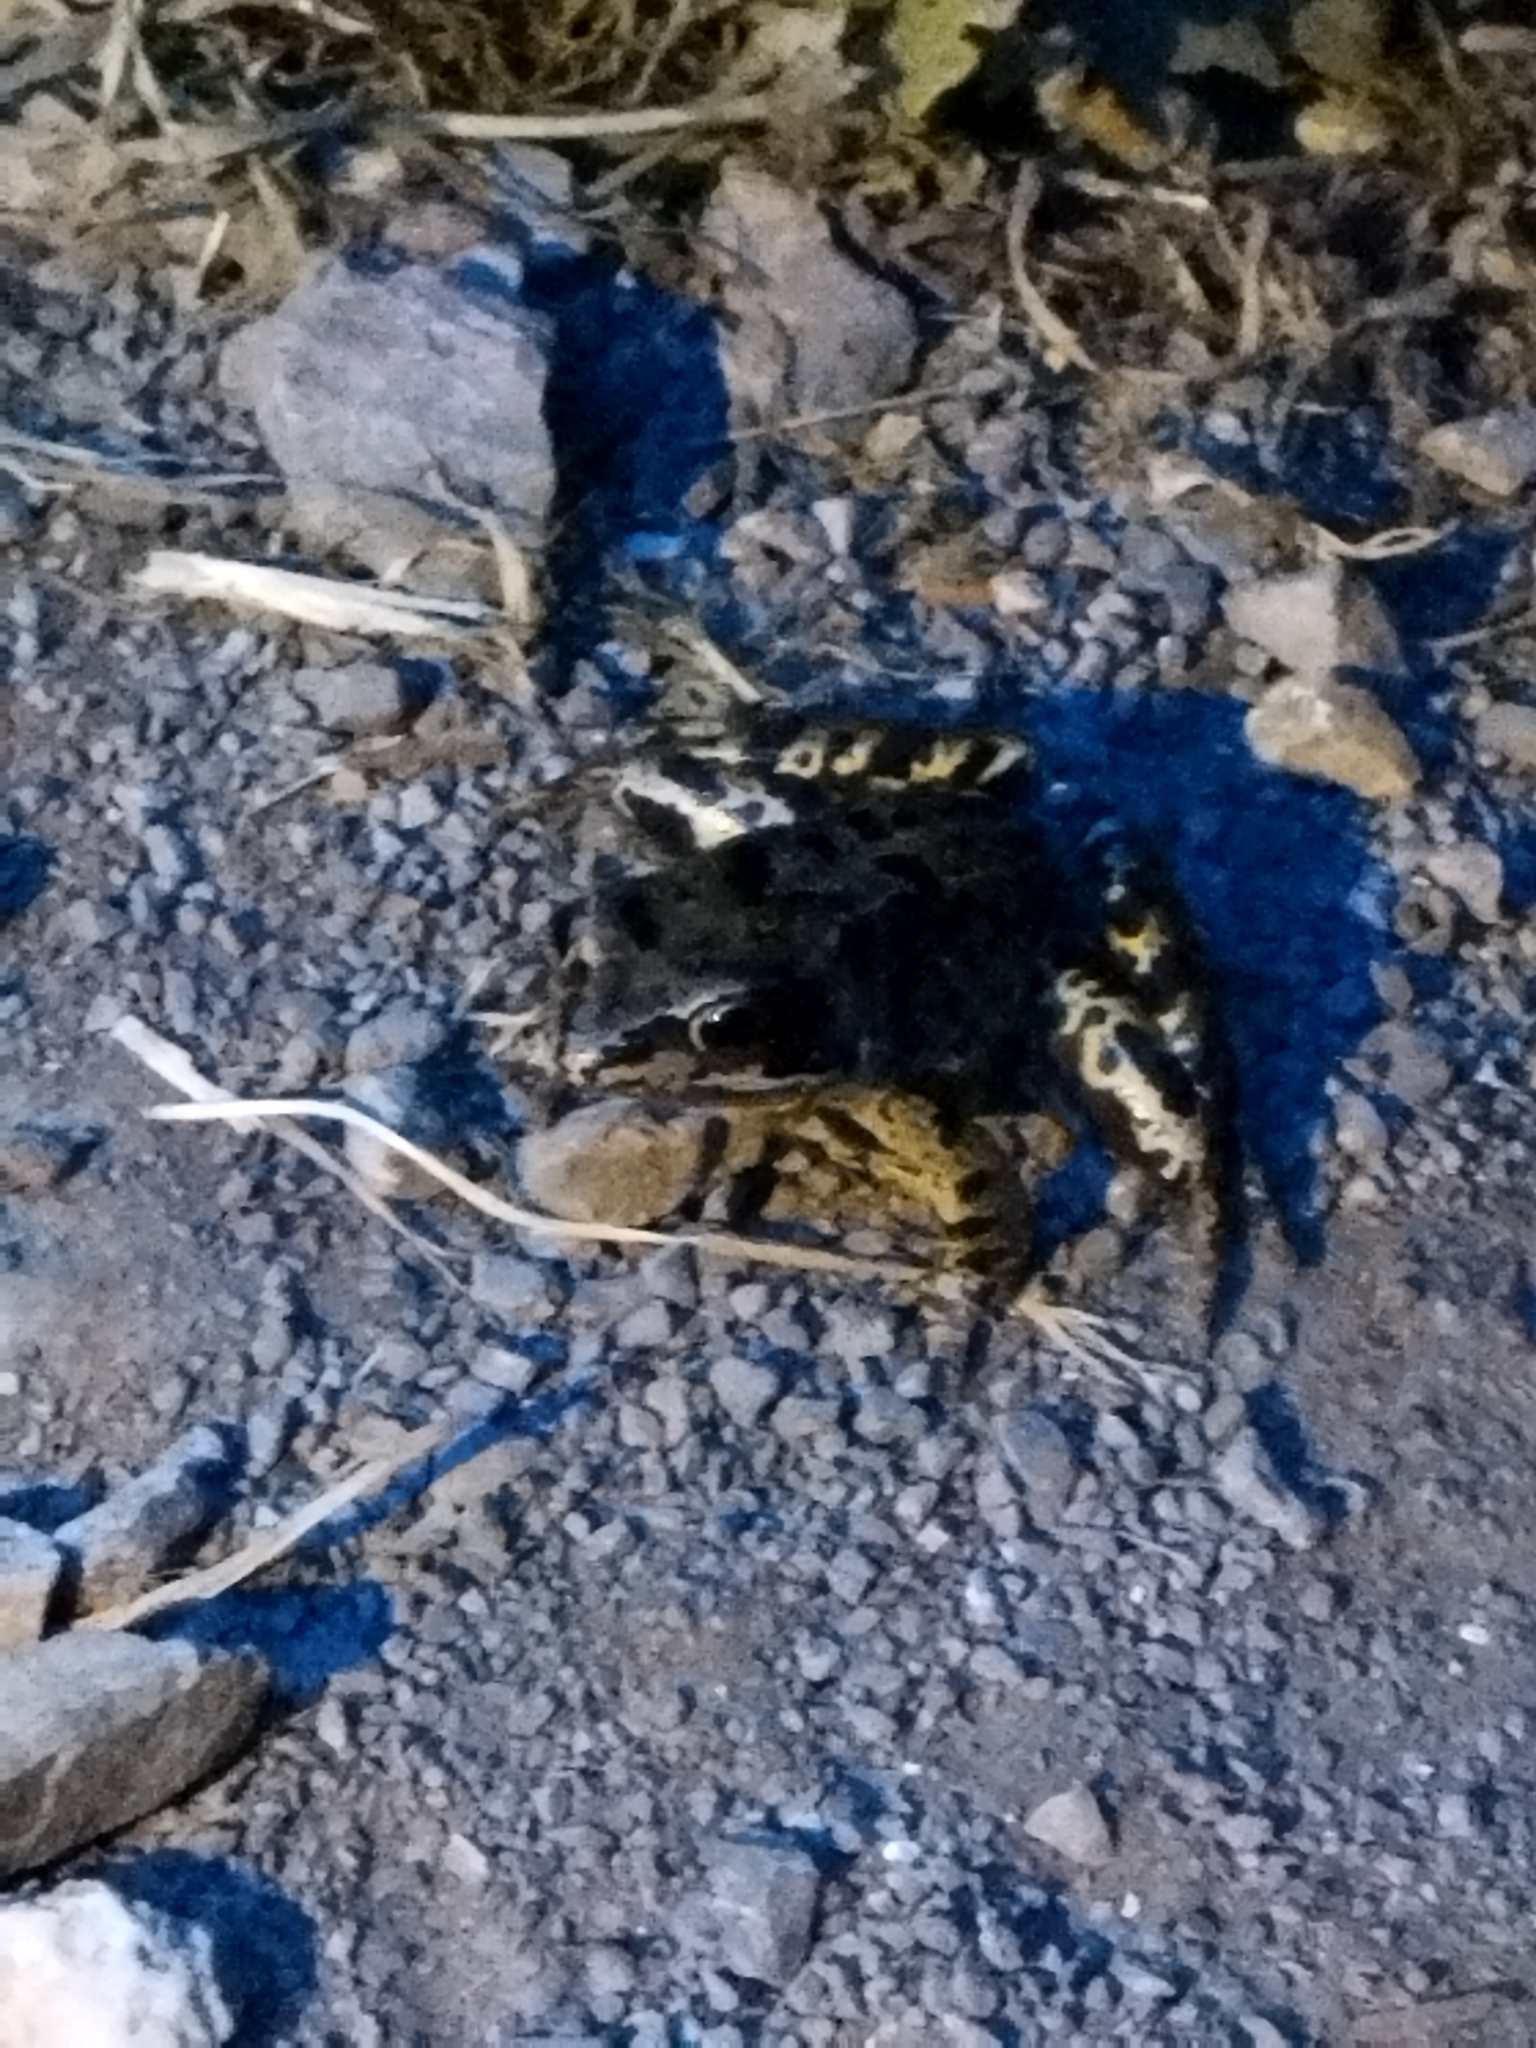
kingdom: Animalia
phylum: Chordata
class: Amphibia
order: Anura
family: Ranidae
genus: Rana
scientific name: Rana temporaria
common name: Common frog
